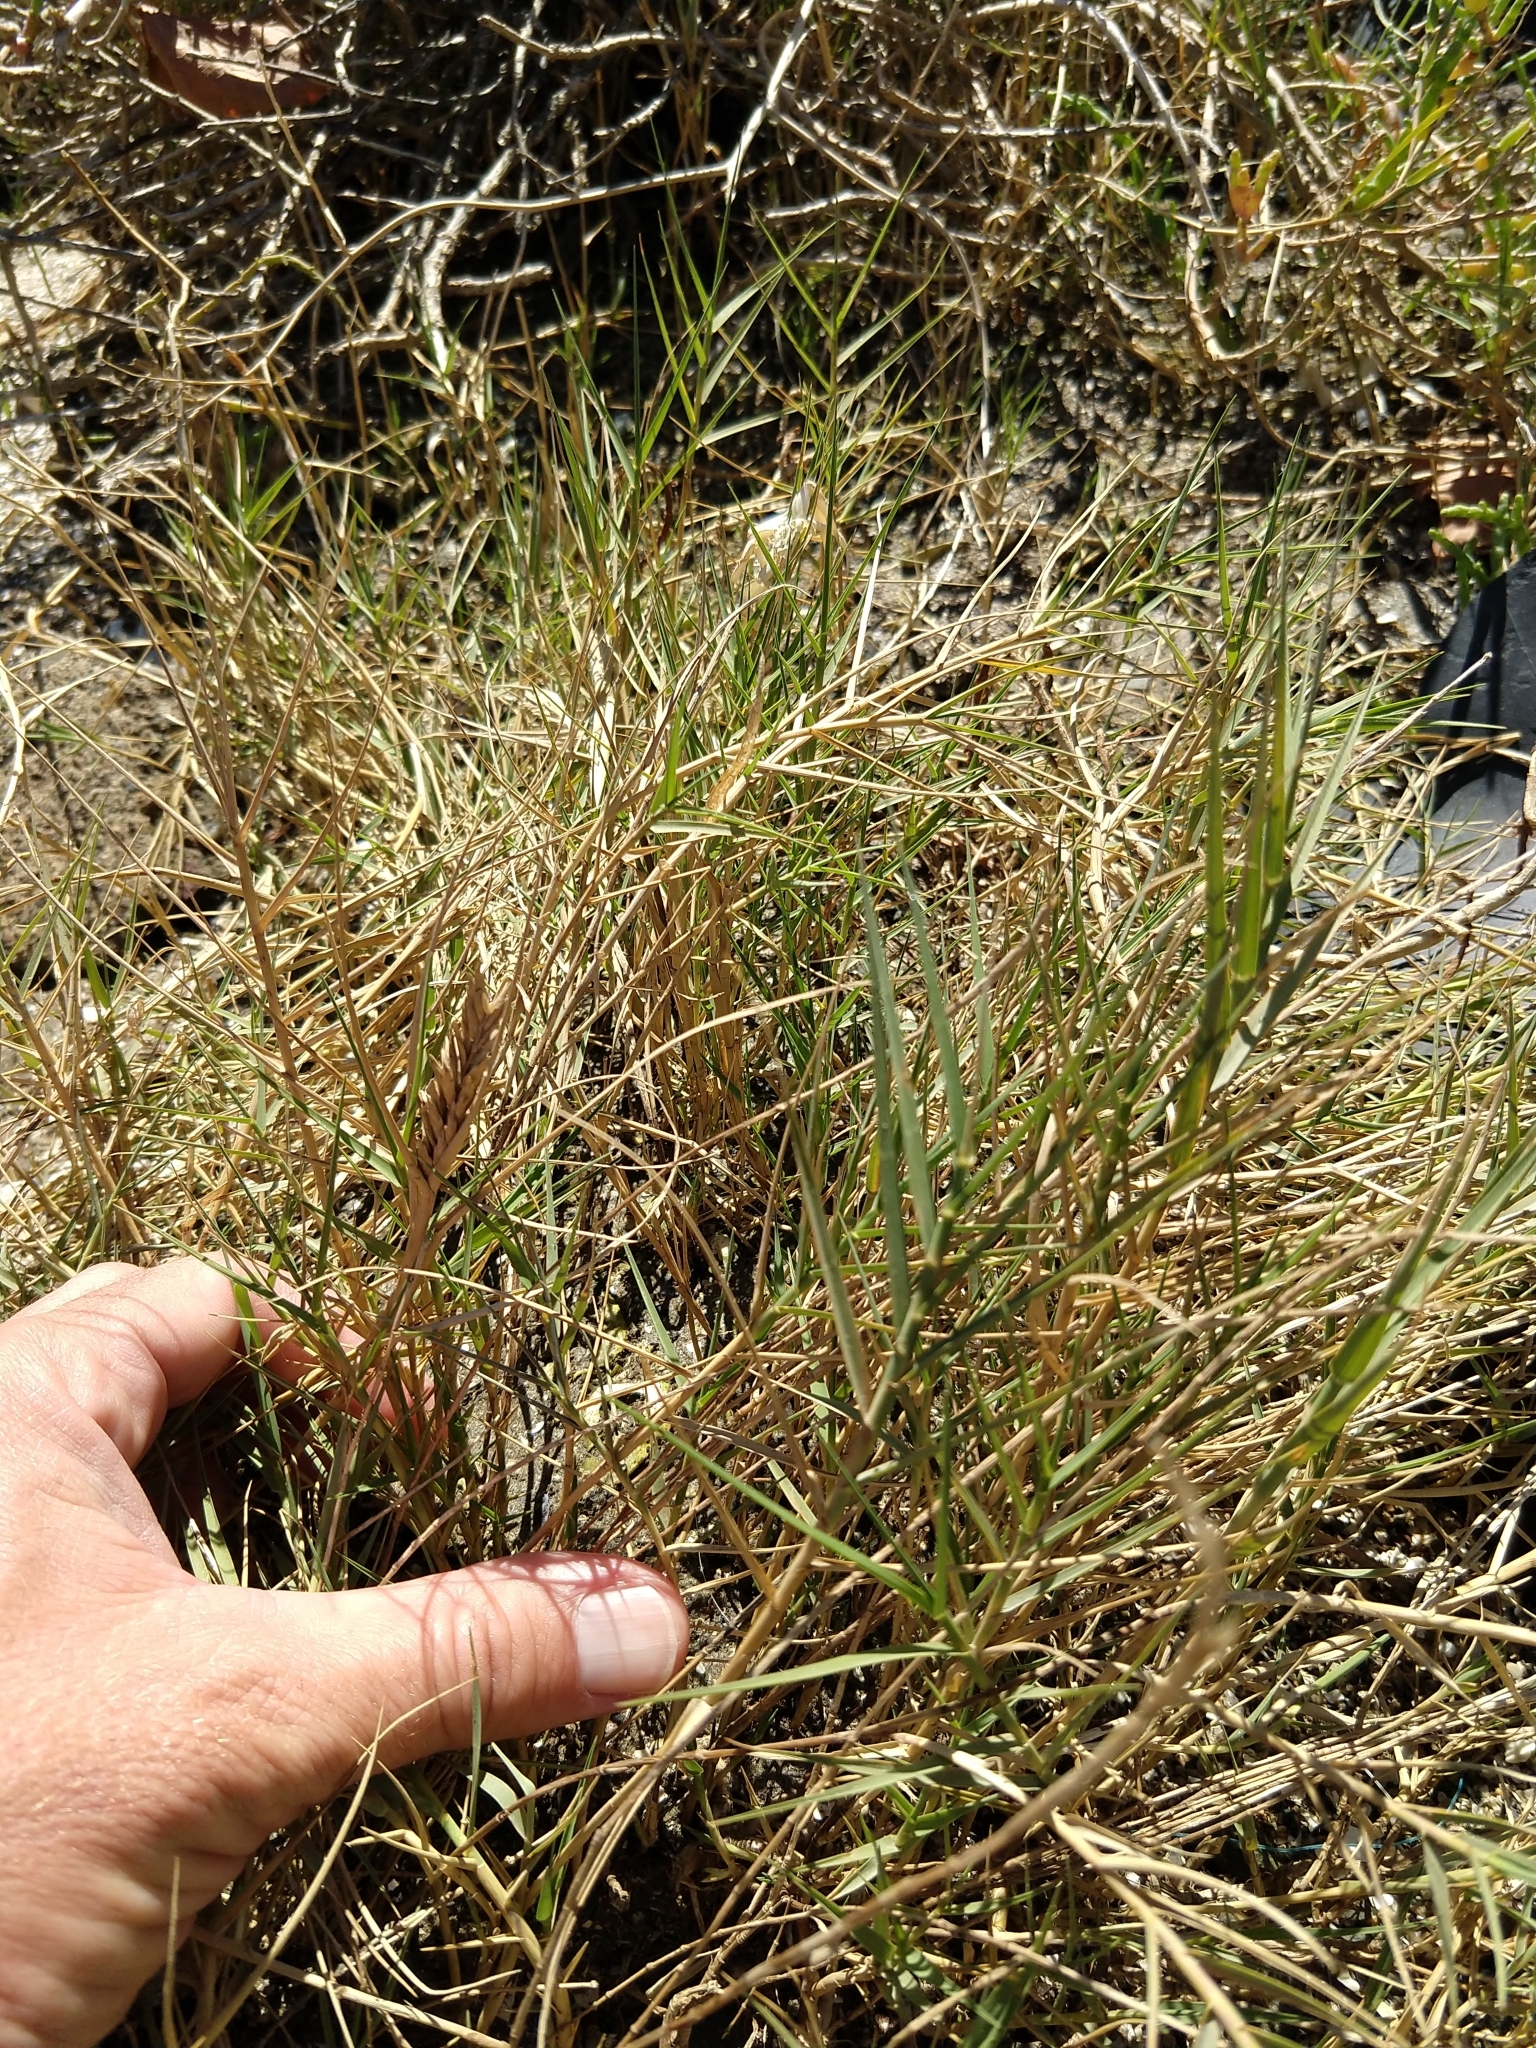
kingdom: Plantae
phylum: Tracheophyta
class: Liliopsida
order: Poales
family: Poaceae
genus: Distichlis
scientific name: Distichlis spicata
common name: Saltgrass
